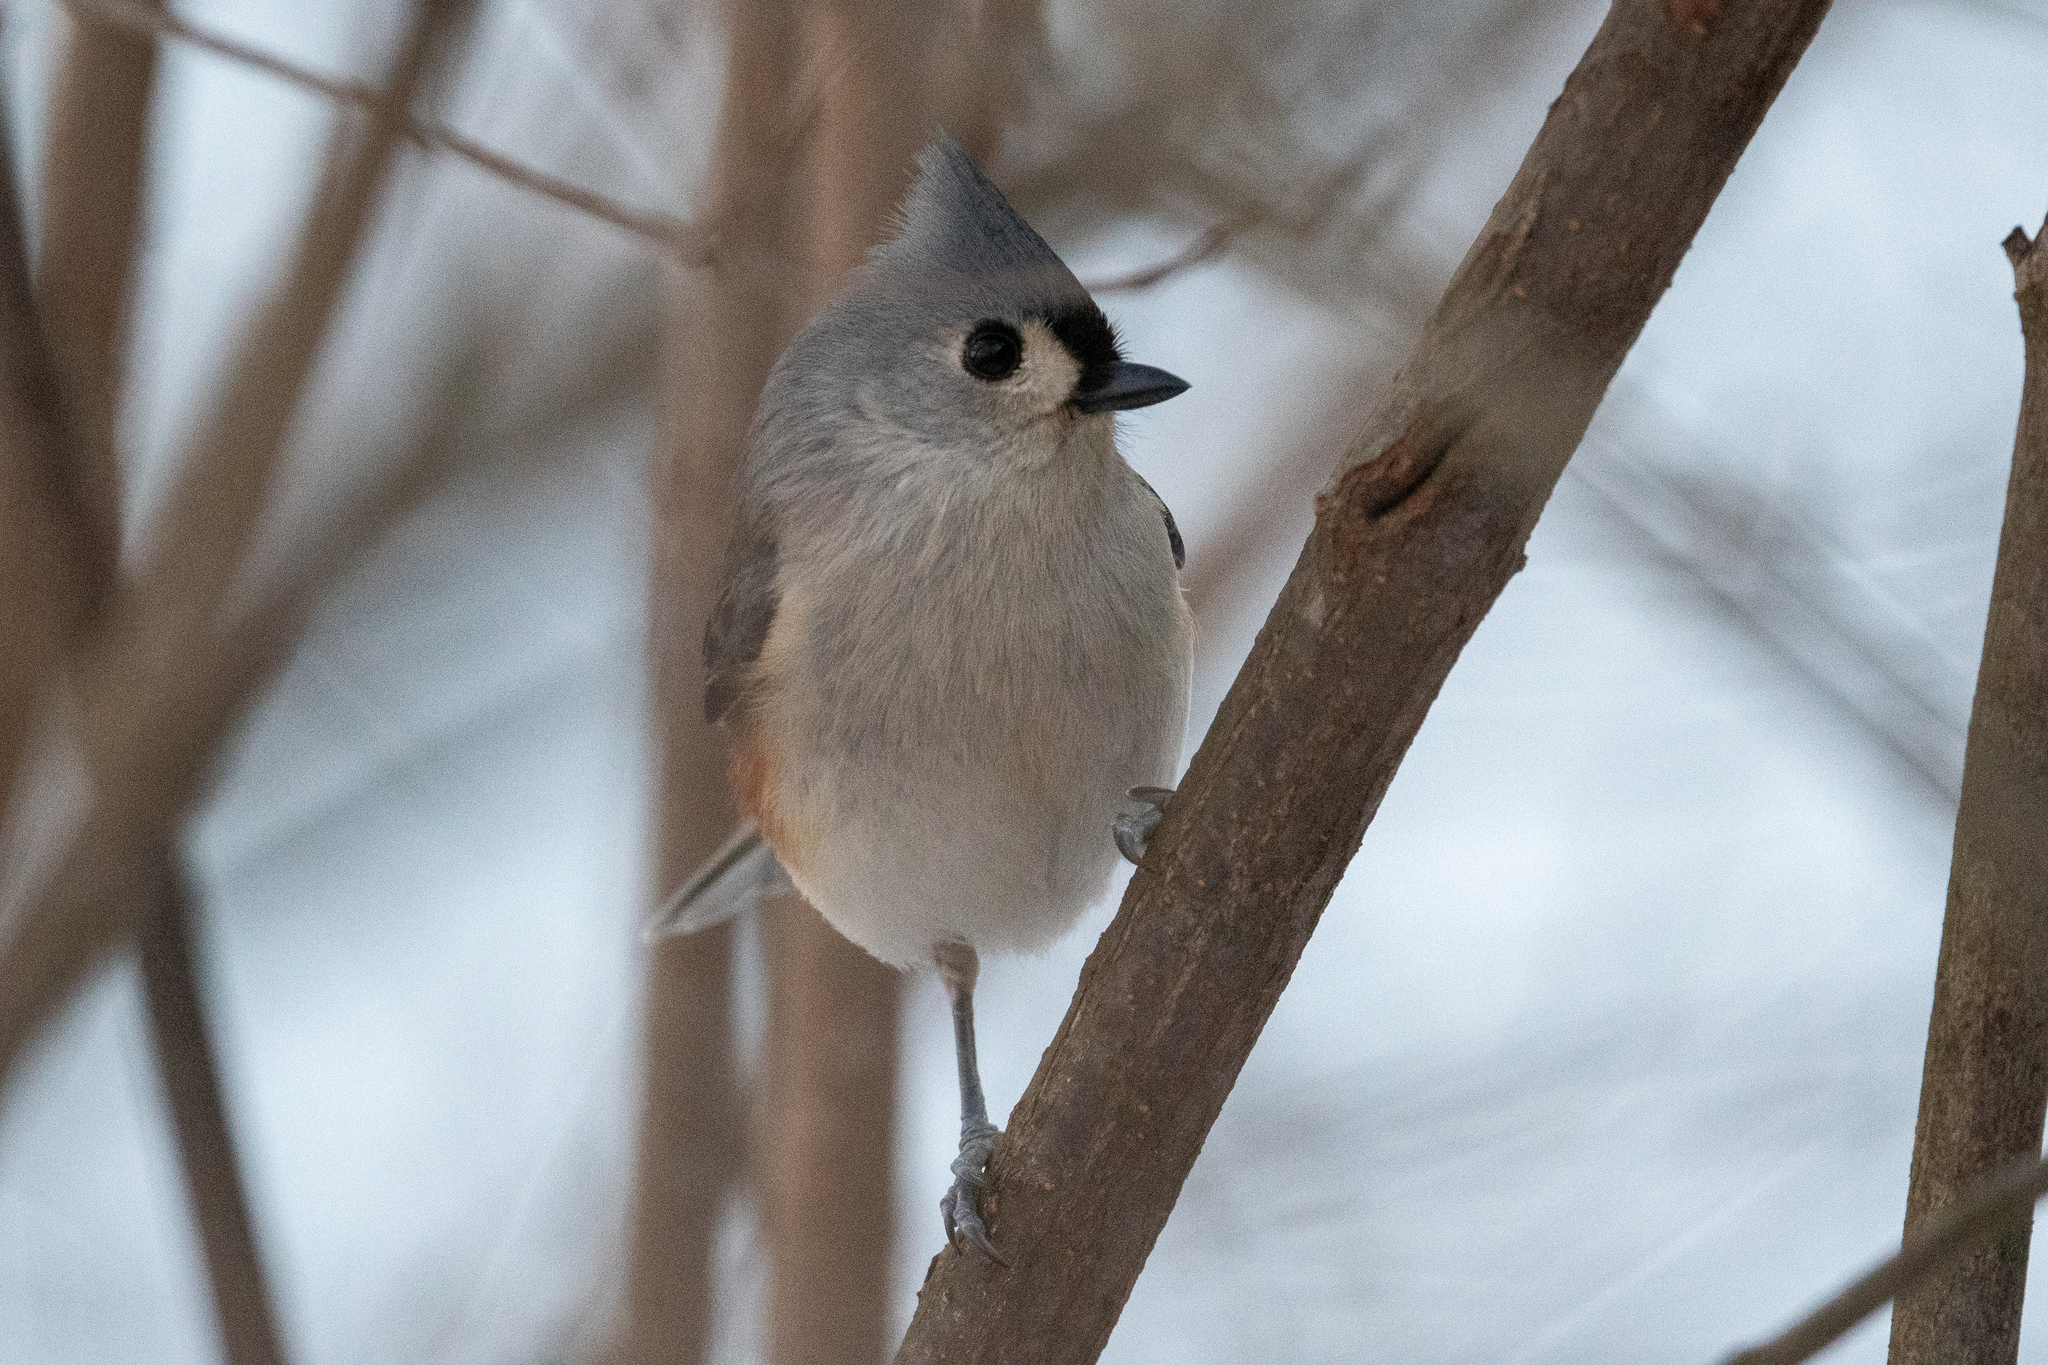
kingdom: Animalia
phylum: Chordata
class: Aves
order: Passeriformes
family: Paridae
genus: Baeolophus
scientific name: Baeolophus bicolor
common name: Tufted titmouse
